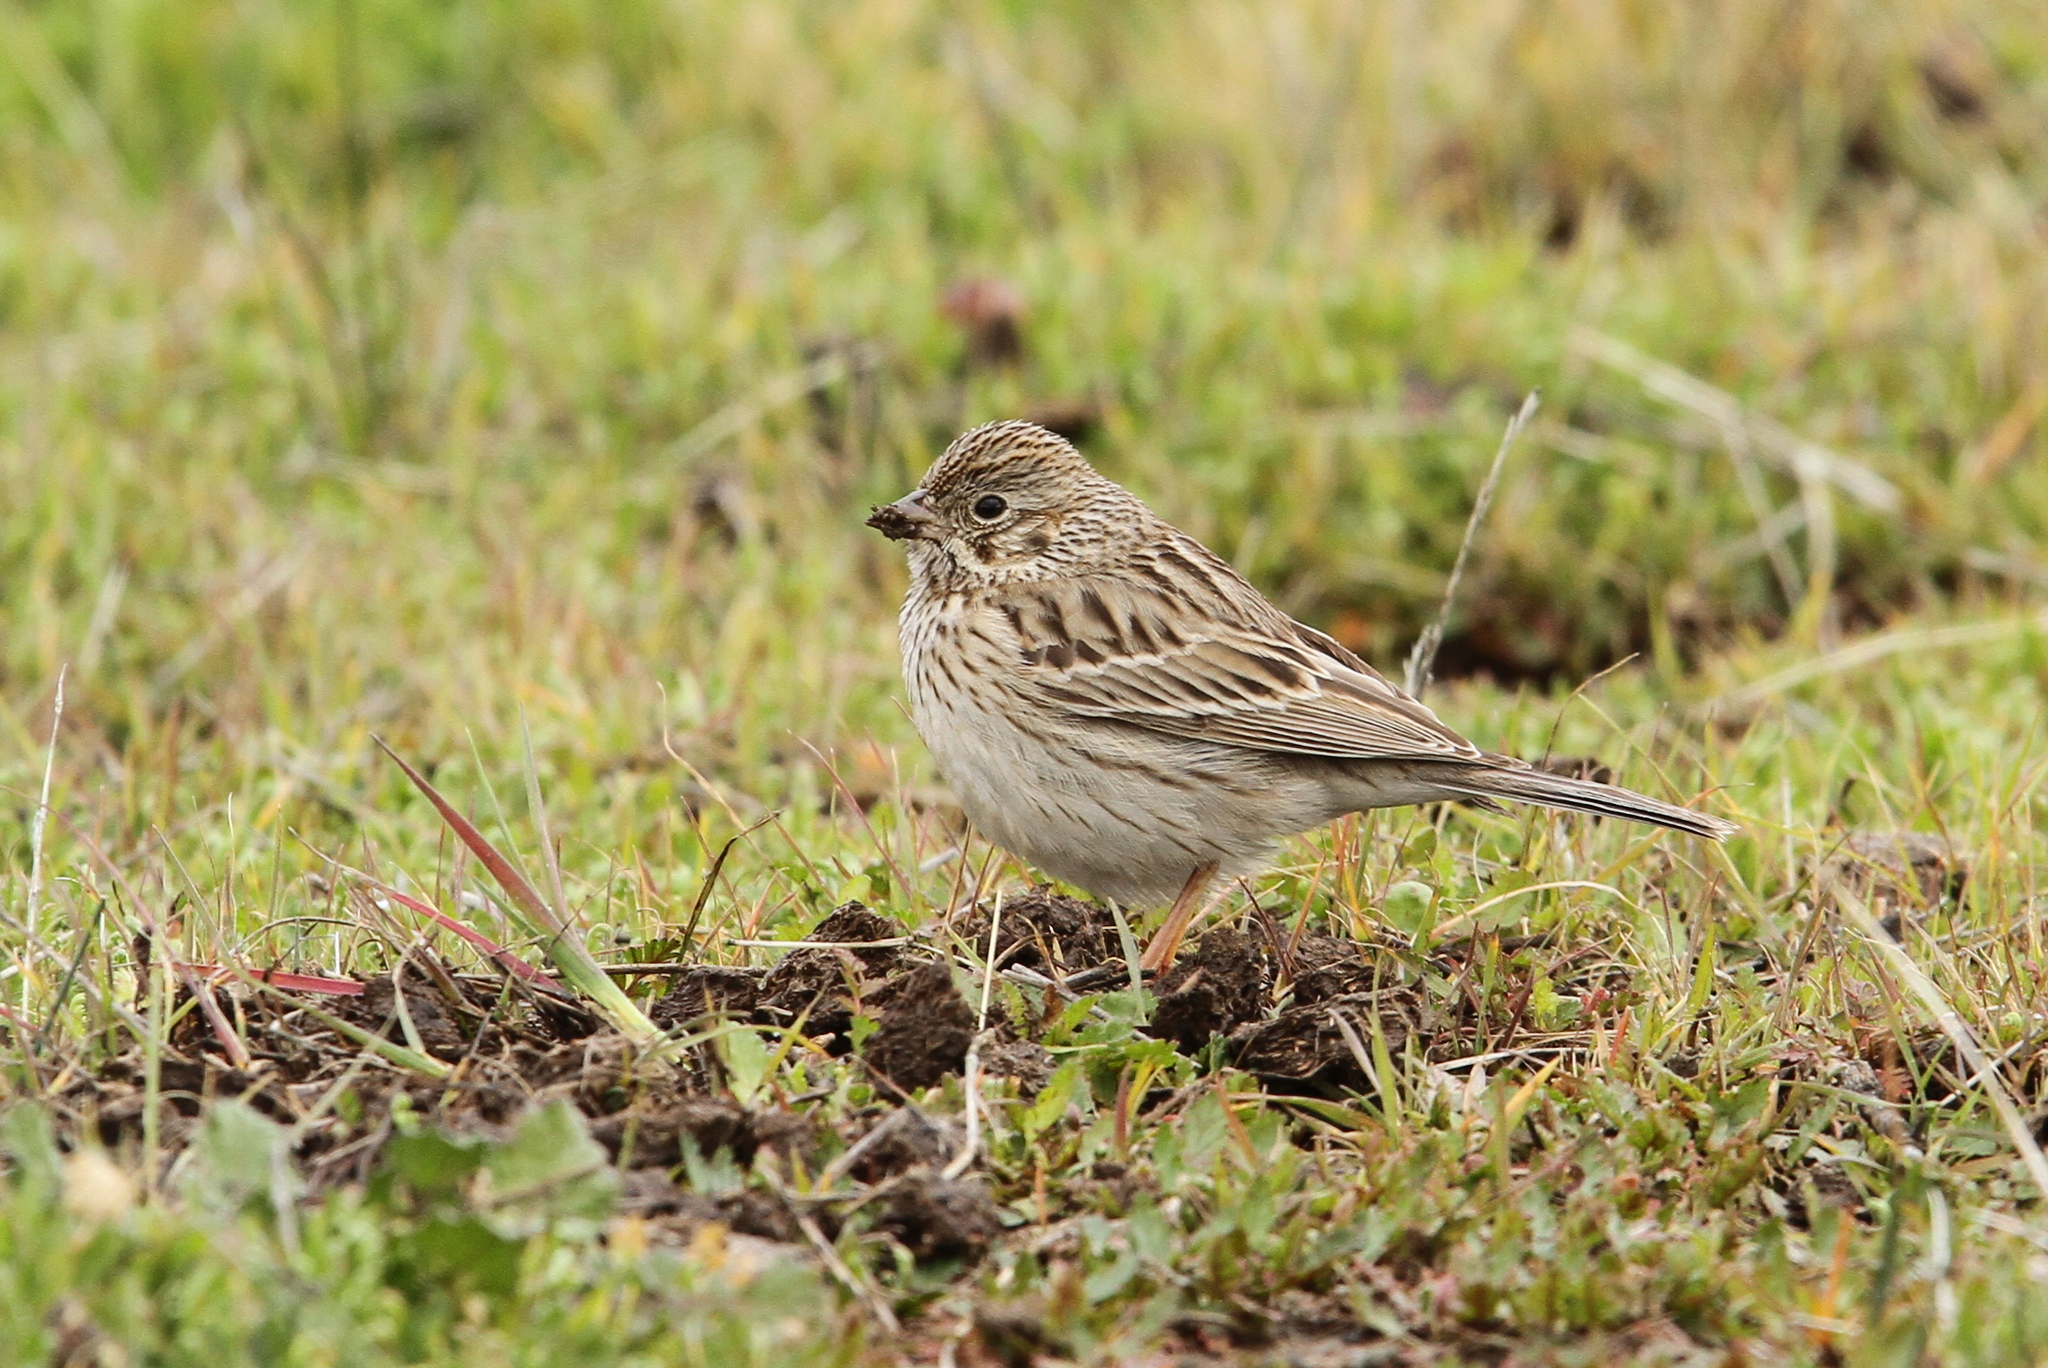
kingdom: Animalia
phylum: Chordata
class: Aves
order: Passeriformes
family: Passerellidae
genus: Pooecetes
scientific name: Pooecetes gramineus
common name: Vesper sparrow
